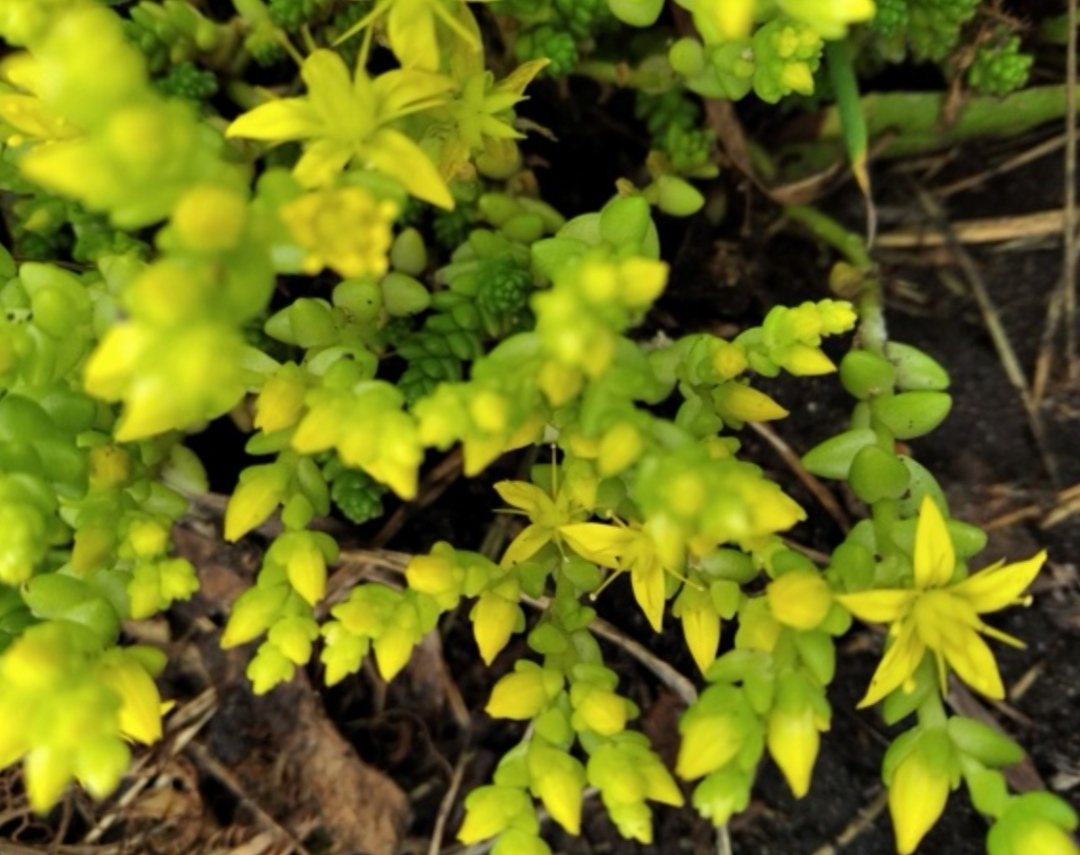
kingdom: Plantae
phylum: Tracheophyta
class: Magnoliopsida
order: Saxifragales
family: Crassulaceae
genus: Sedum
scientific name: Sedum acre
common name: Biting stonecrop
